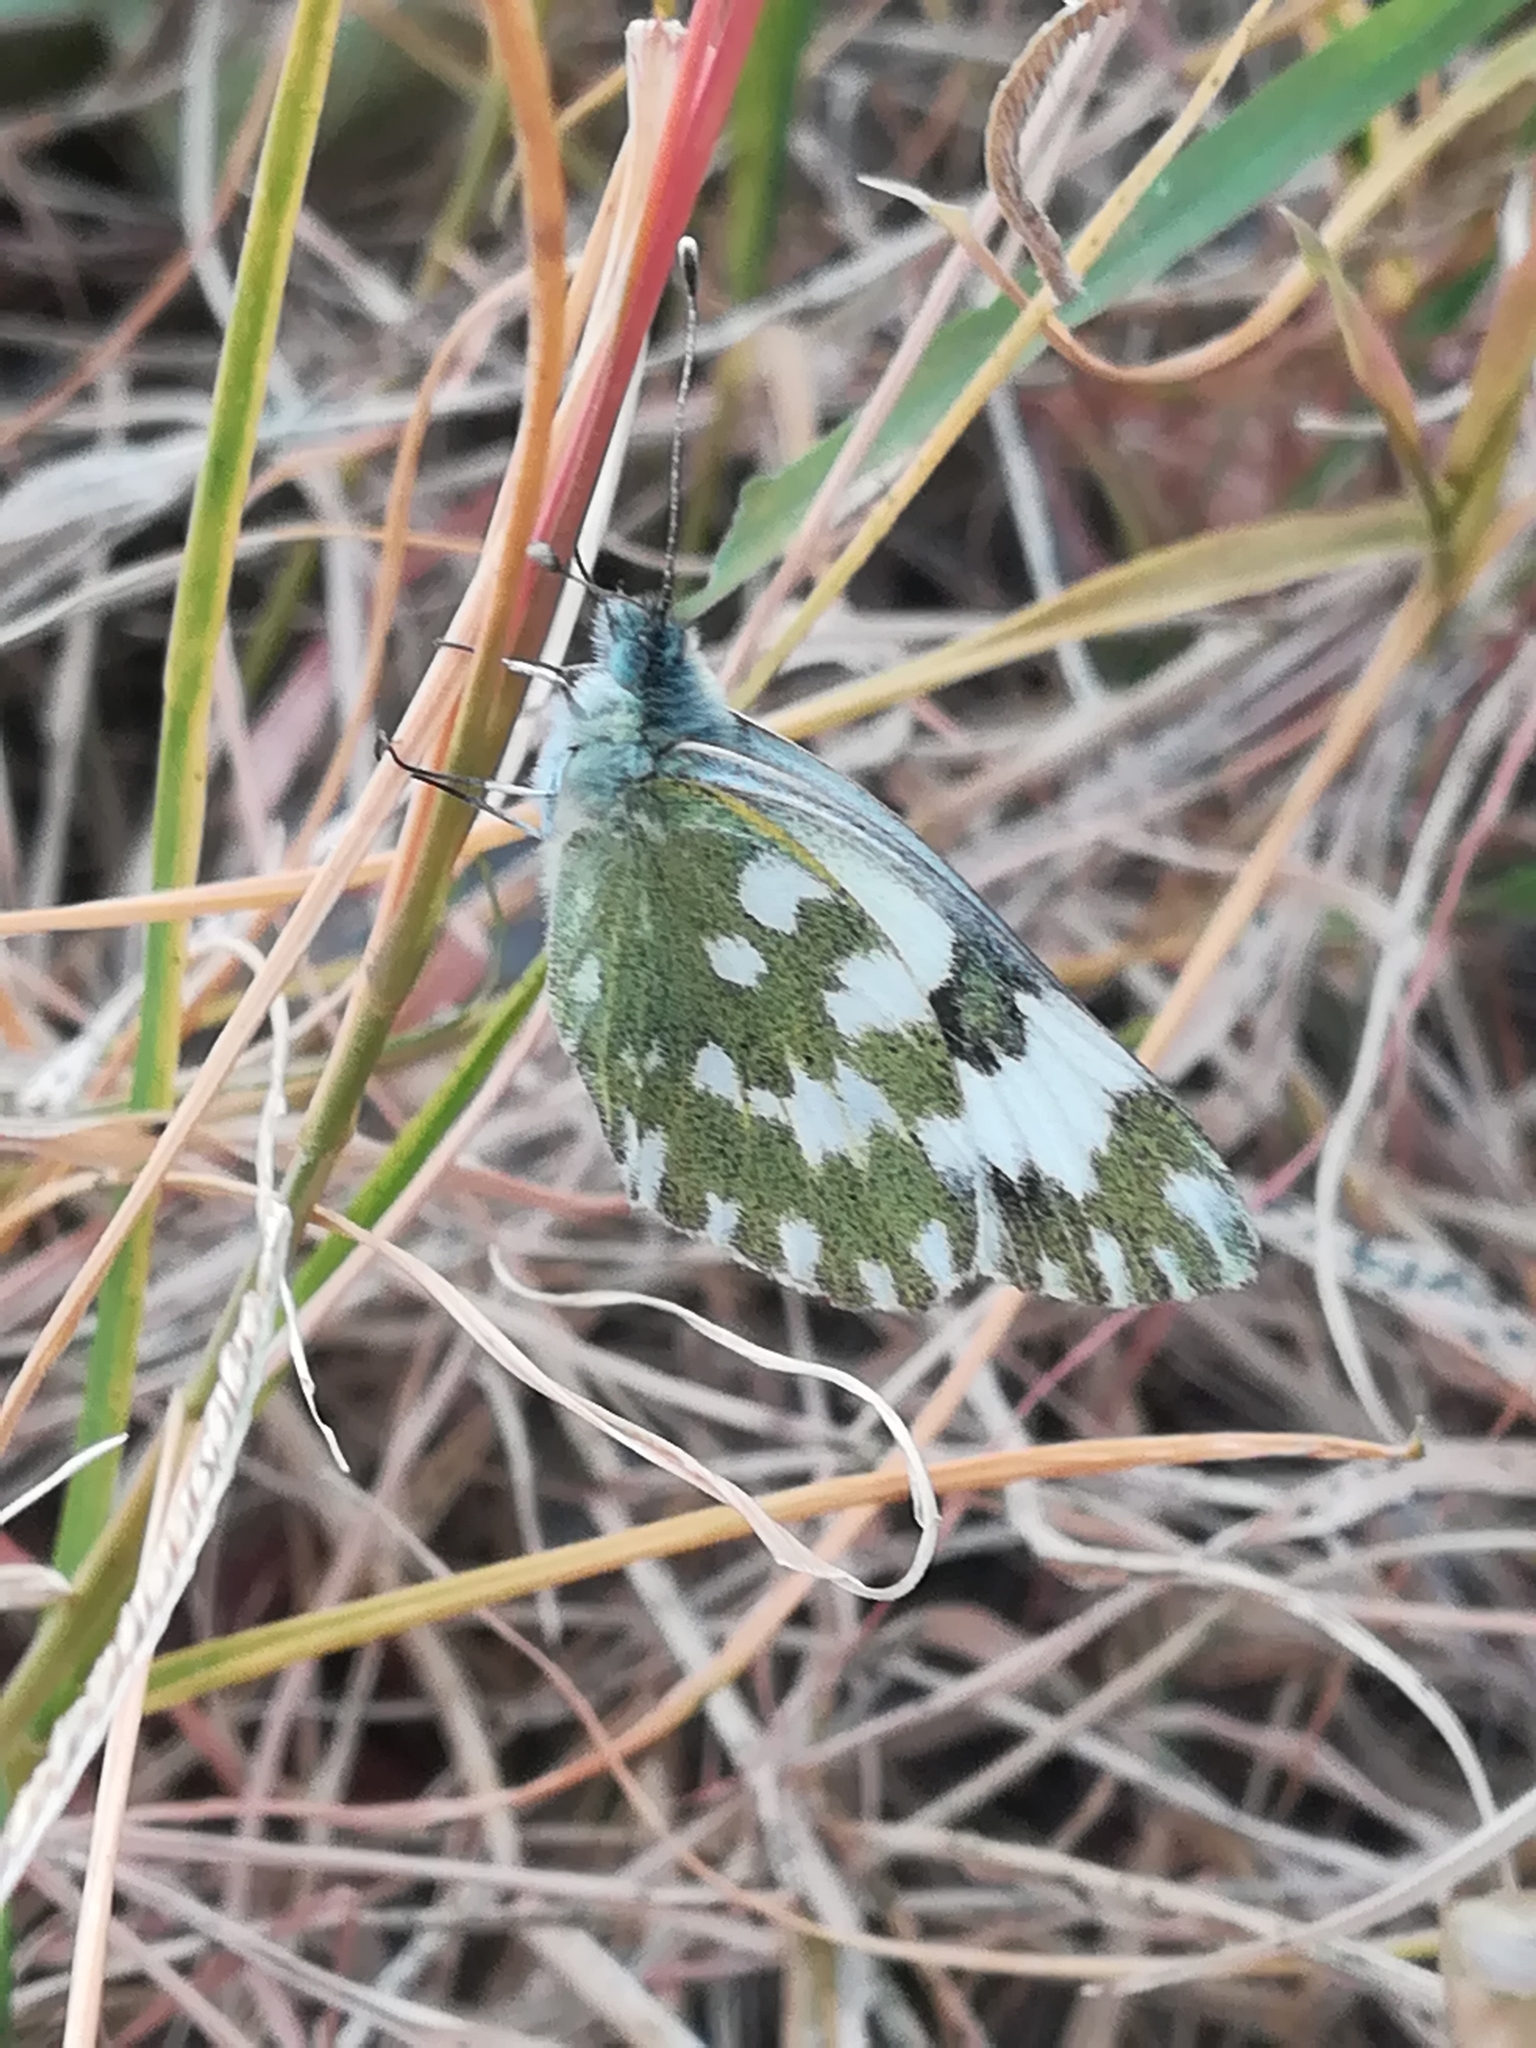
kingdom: Animalia
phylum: Arthropoda
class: Insecta
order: Lepidoptera
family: Pieridae
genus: Pontia
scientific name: Pontia edusa
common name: Eastern bath white
